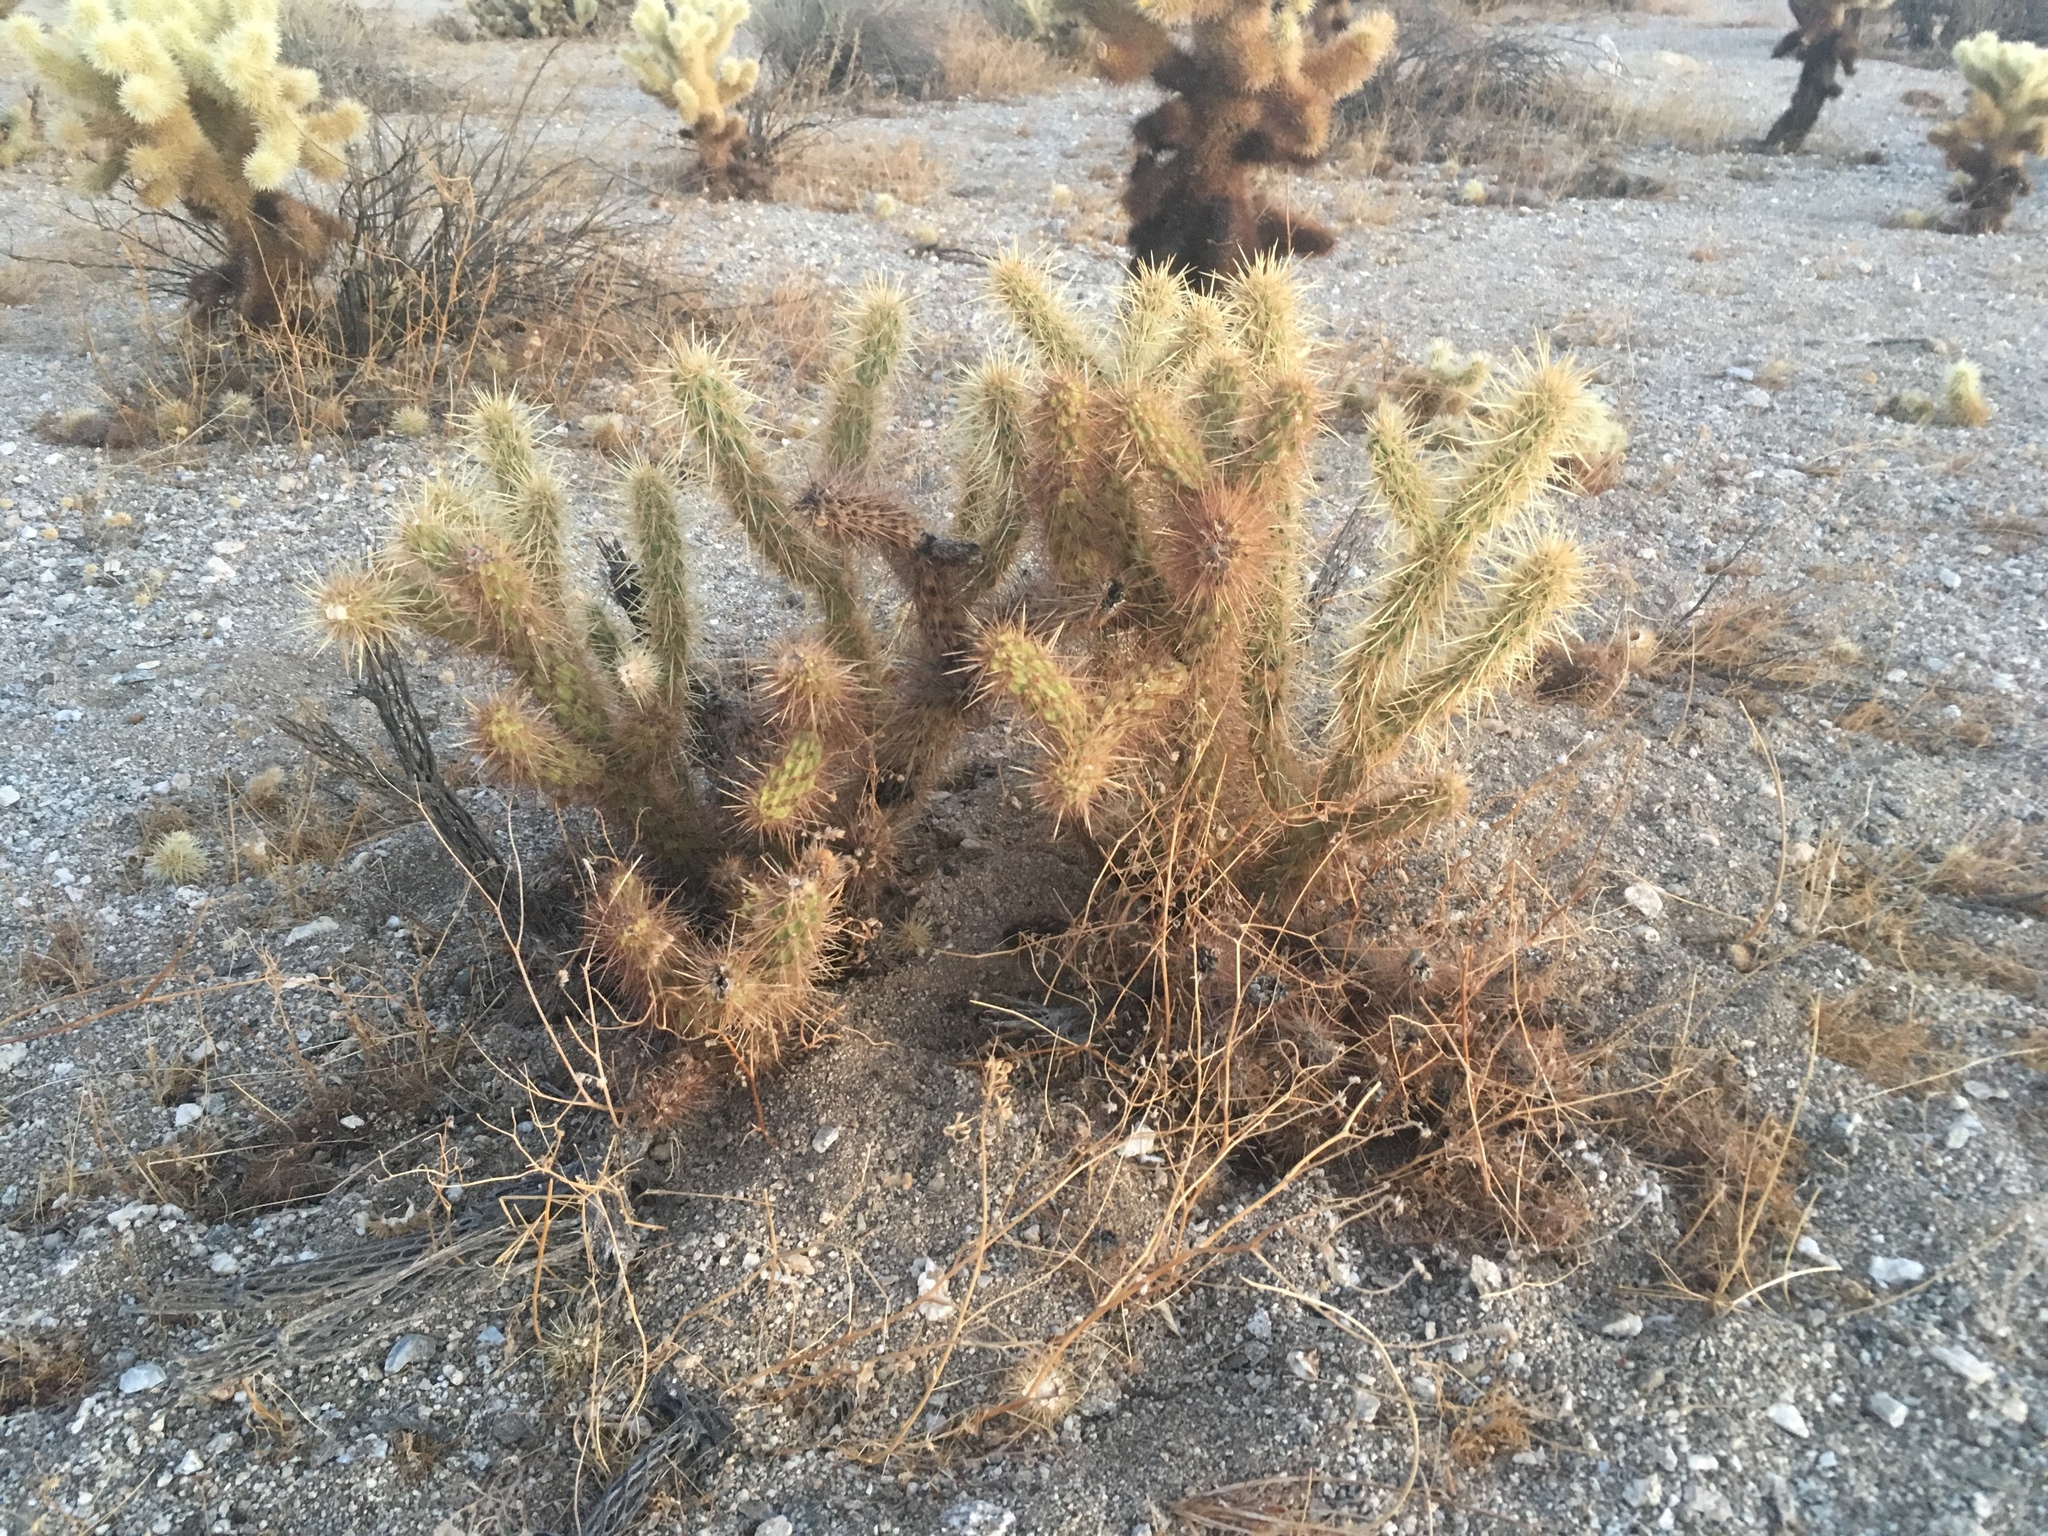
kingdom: Plantae
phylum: Tracheophyta
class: Magnoliopsida
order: Caryophyllales
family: Cactaceae
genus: Cylindropuntia
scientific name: Cylindropuntia ganderi
